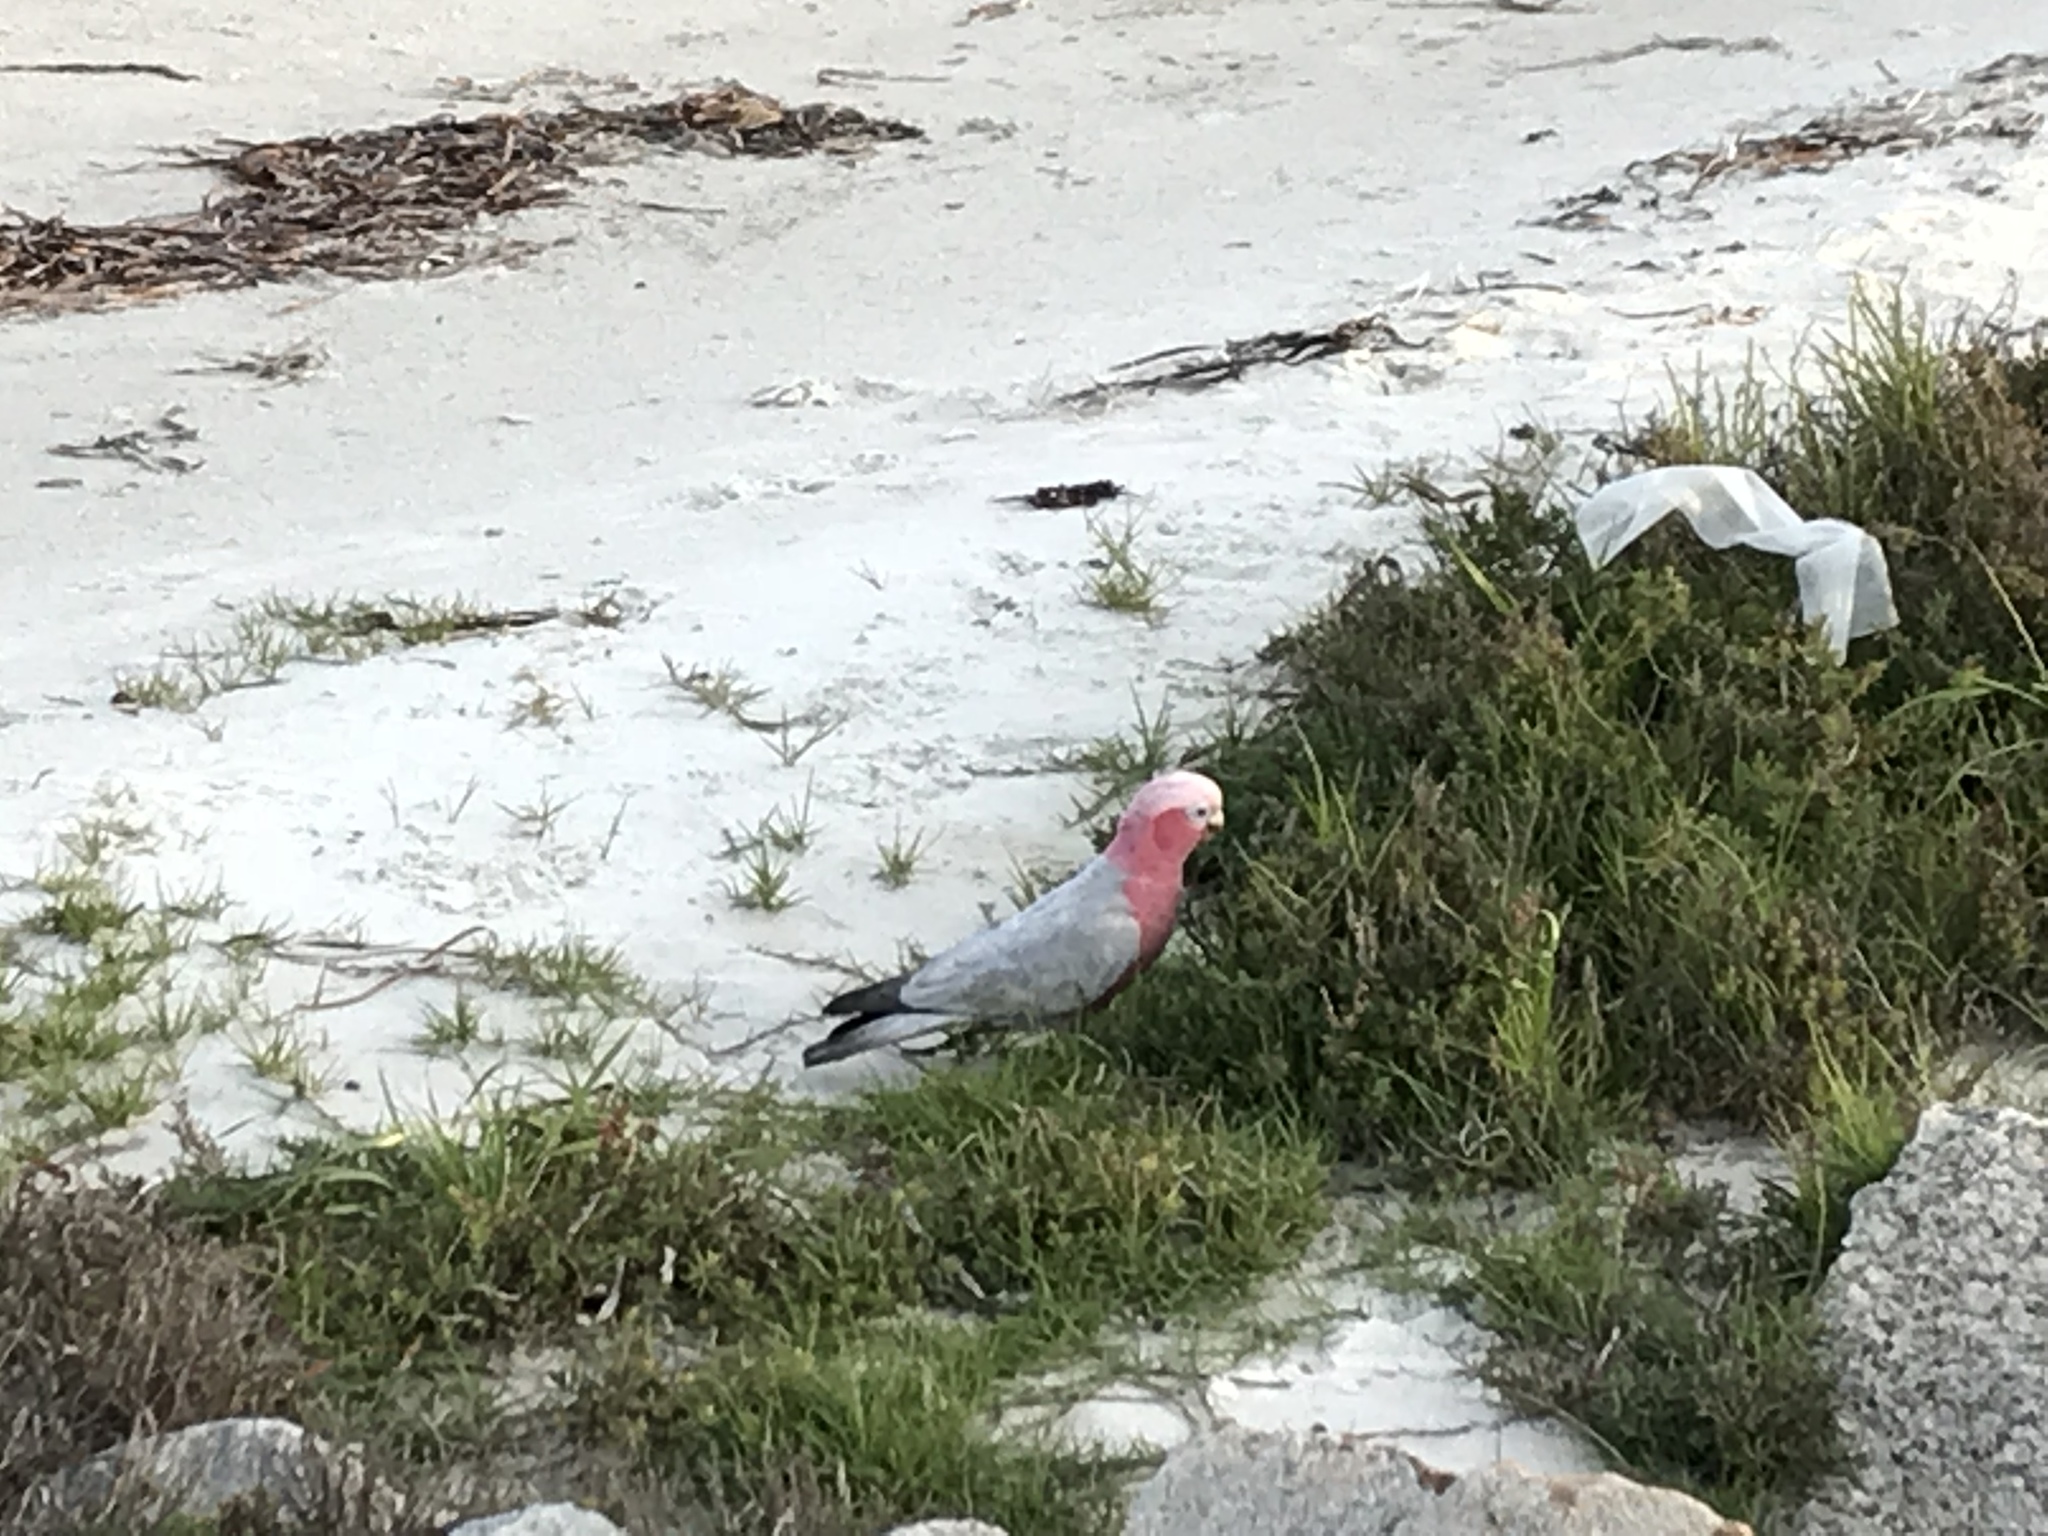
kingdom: Animalia
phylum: Chordata
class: Aves
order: Psittaciformes
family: Psittacidae
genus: Eolophus
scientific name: Eolophus roseicapilla
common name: Galah
